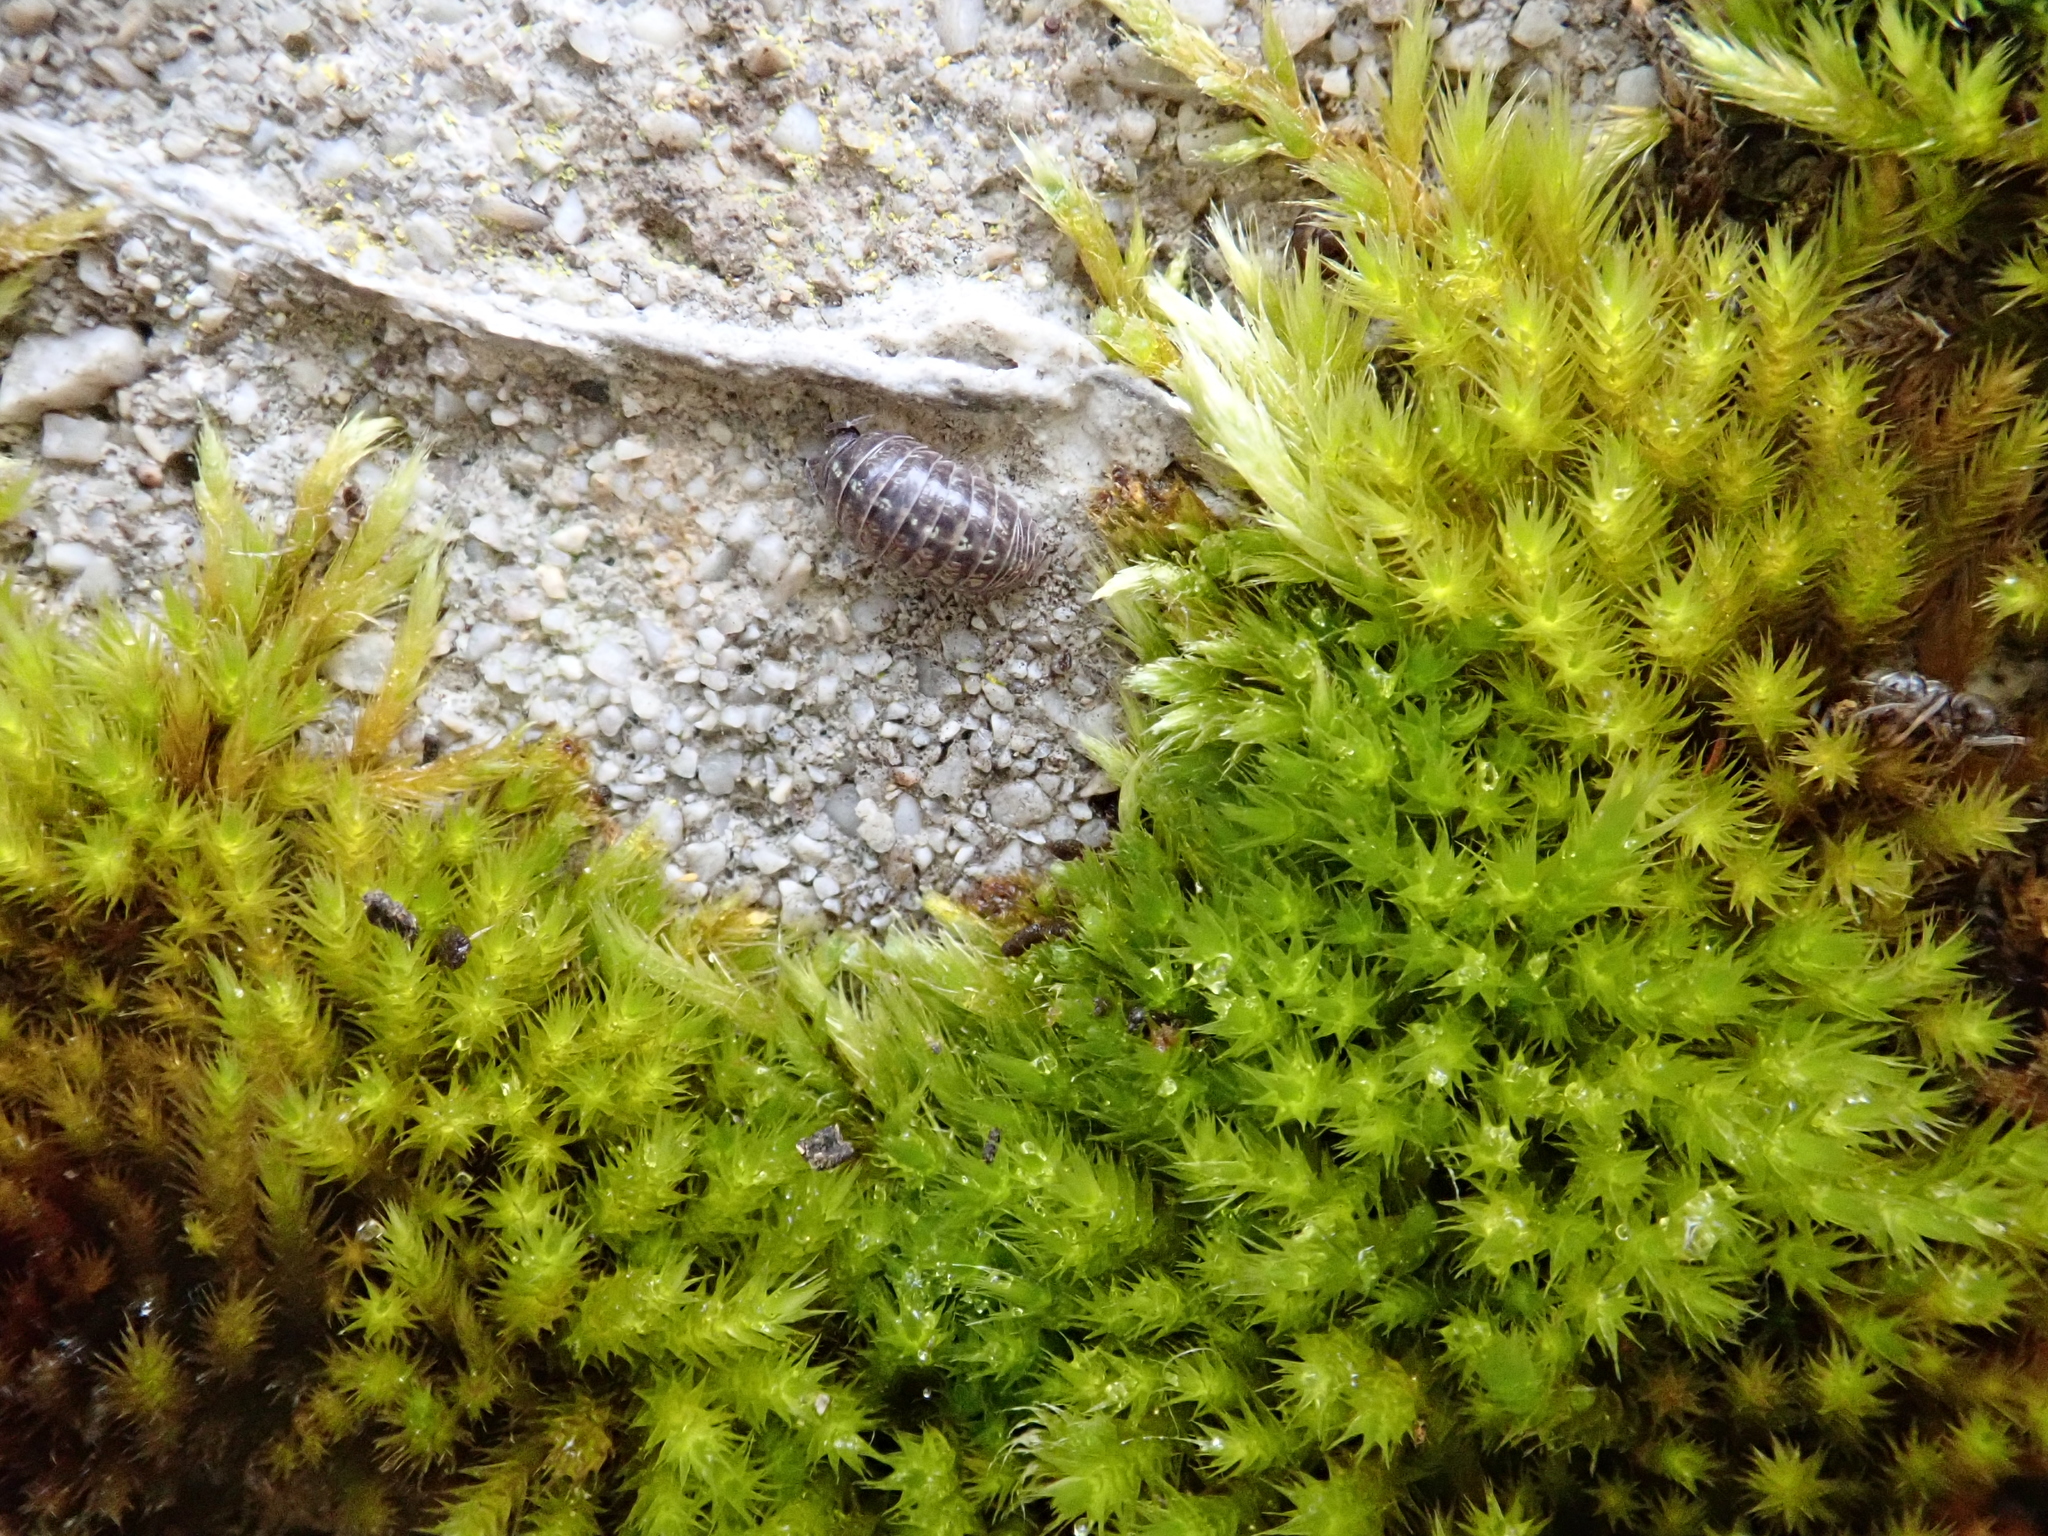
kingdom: Plantae
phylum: Bryophyta
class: Bryopsida
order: Hypnales
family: Brachytheciaceae
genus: Homalothecium
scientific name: Homalothecium sericeum
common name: Silky wall feather-moss
